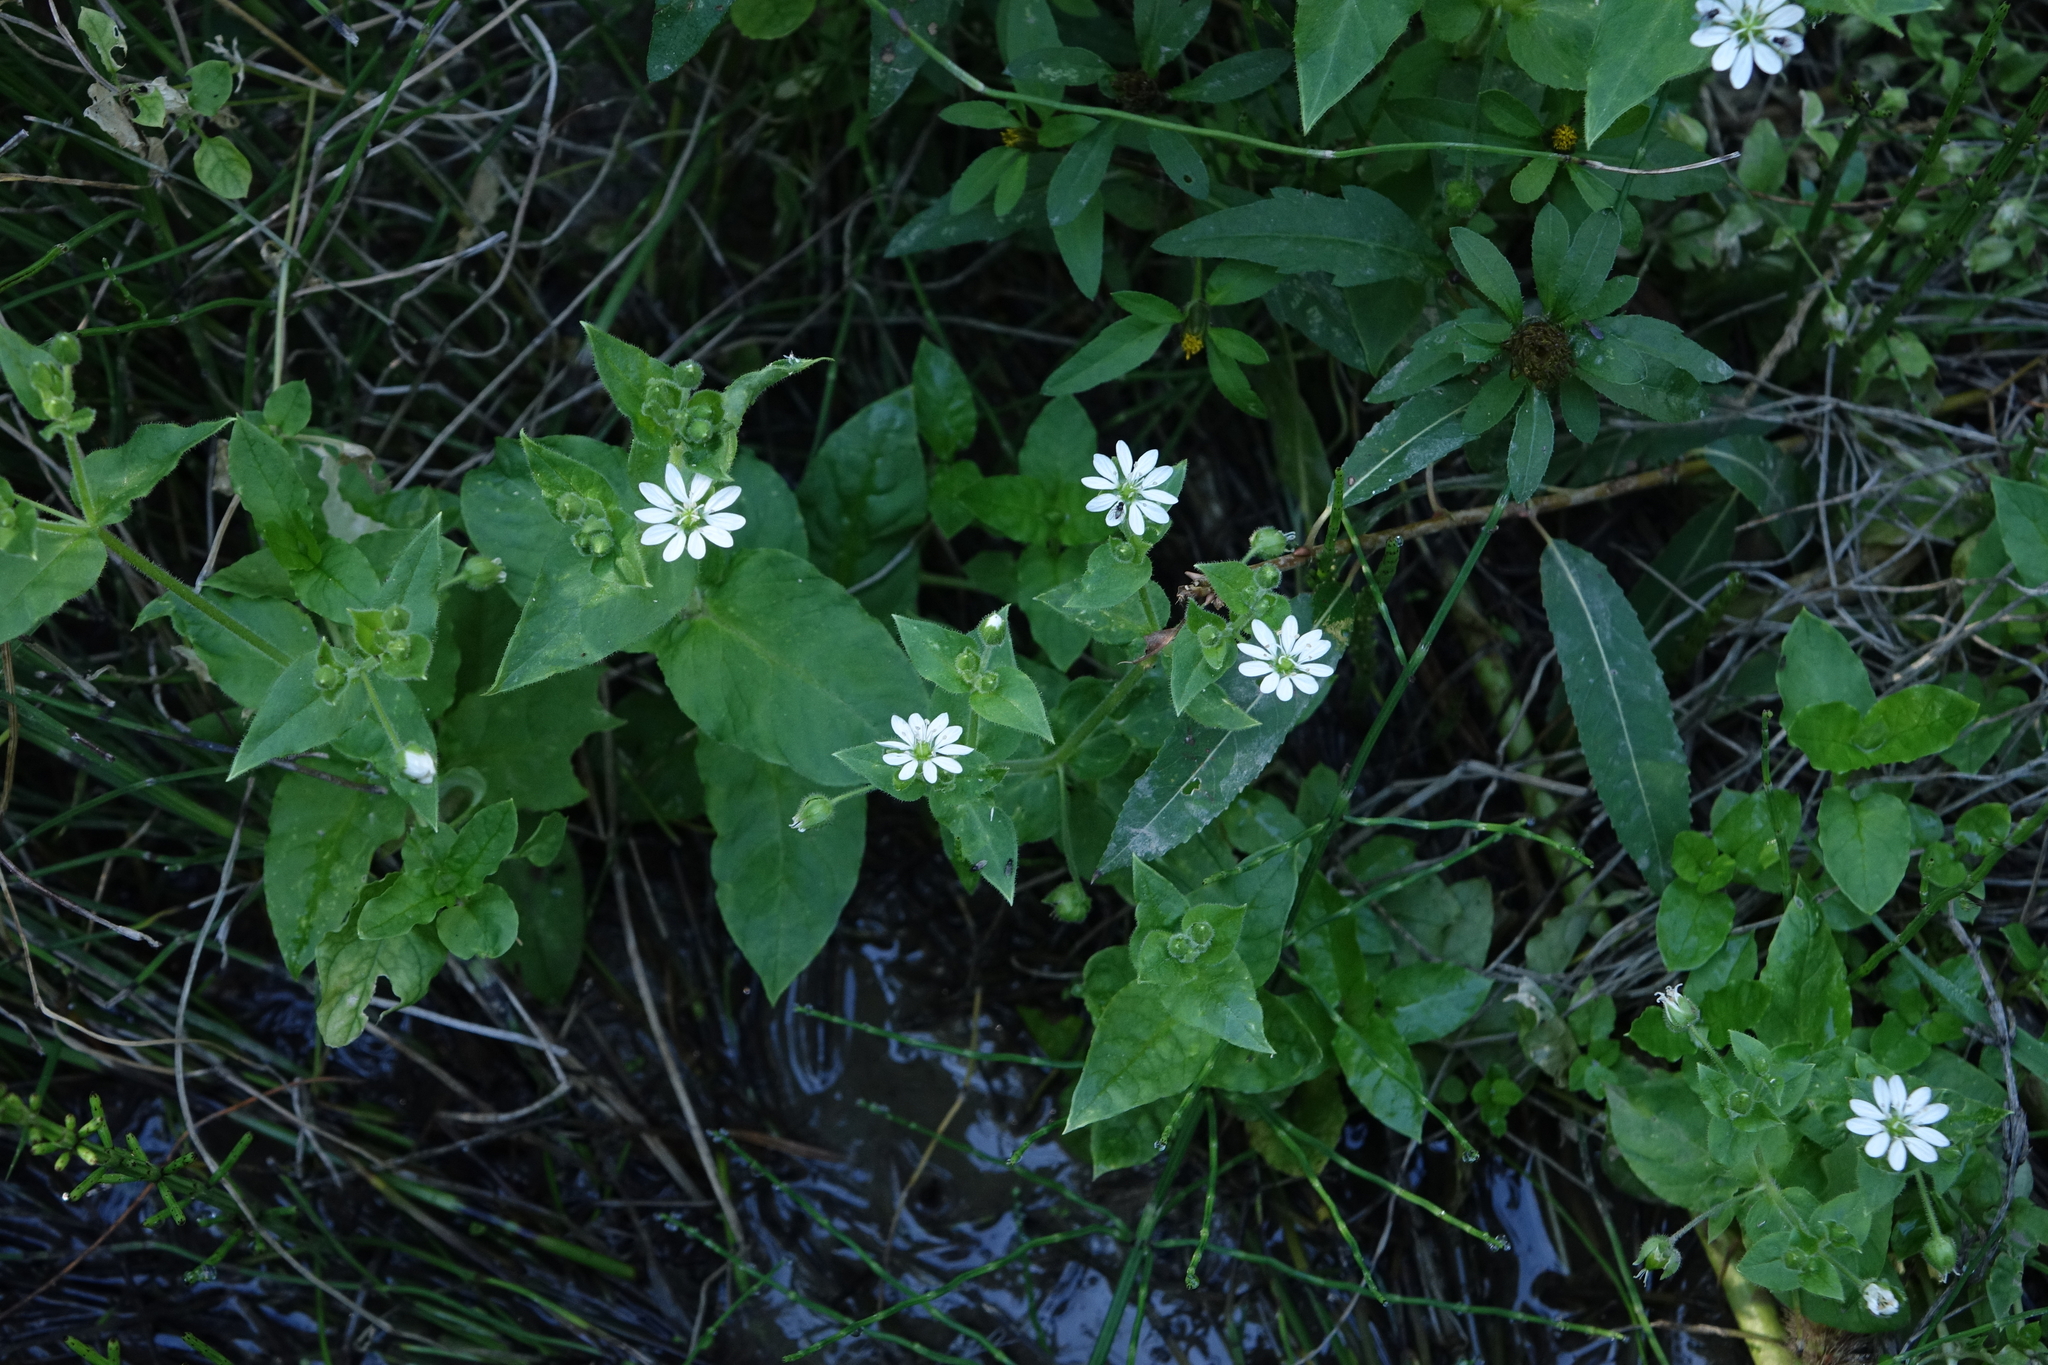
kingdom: Plantae
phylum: Tracheophyta
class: Magnoliopsida
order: Caryophyllales
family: Caryophyllaceae
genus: Stellaria
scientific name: Stellaria aquatica
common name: Water chickweed
